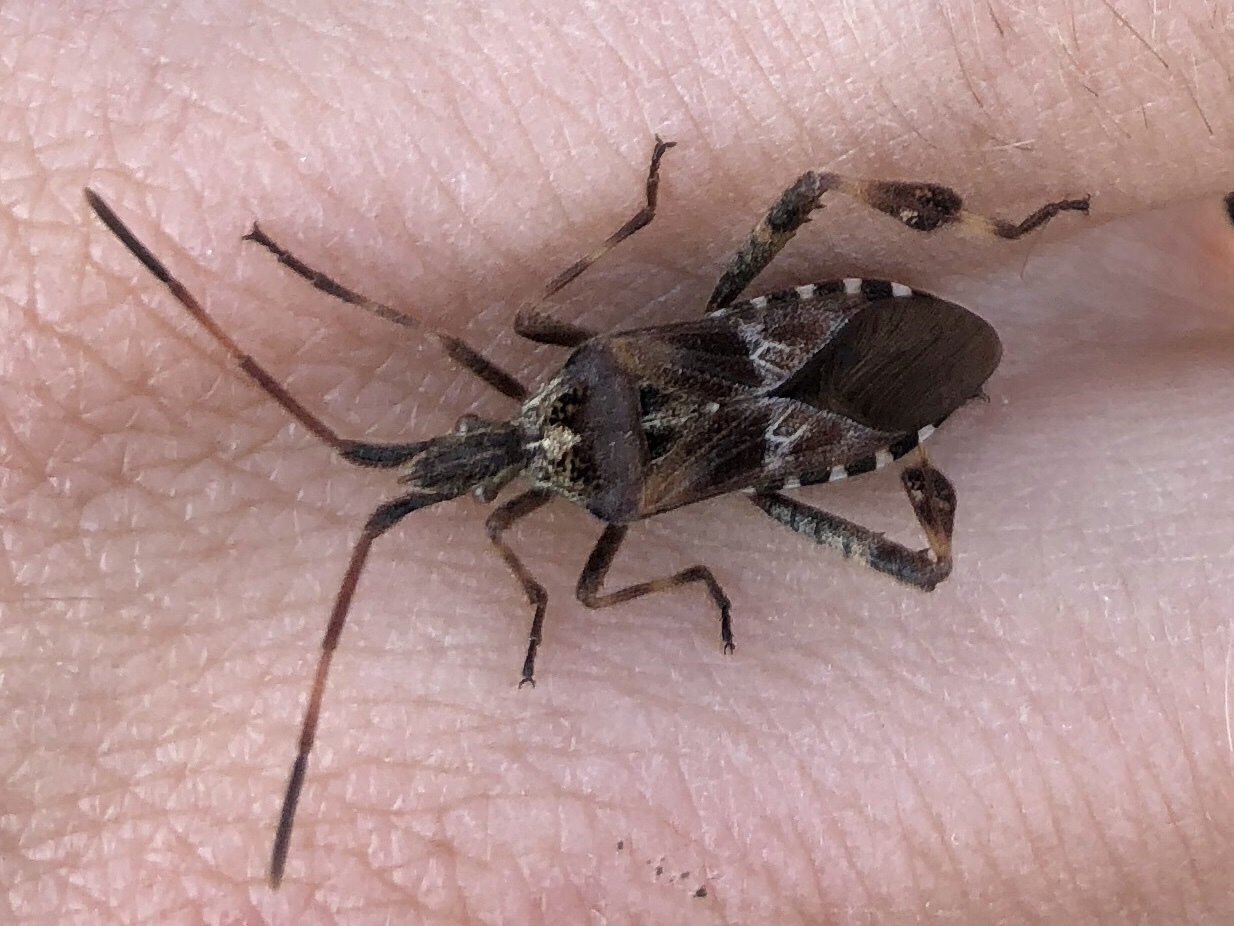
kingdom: Animalia
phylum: Arthropoda
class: Insecta
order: Hemiptera
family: Coreidae
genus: Leptoglossus
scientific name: Leptoglossus occidentalis
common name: Western conifer-seed bug
